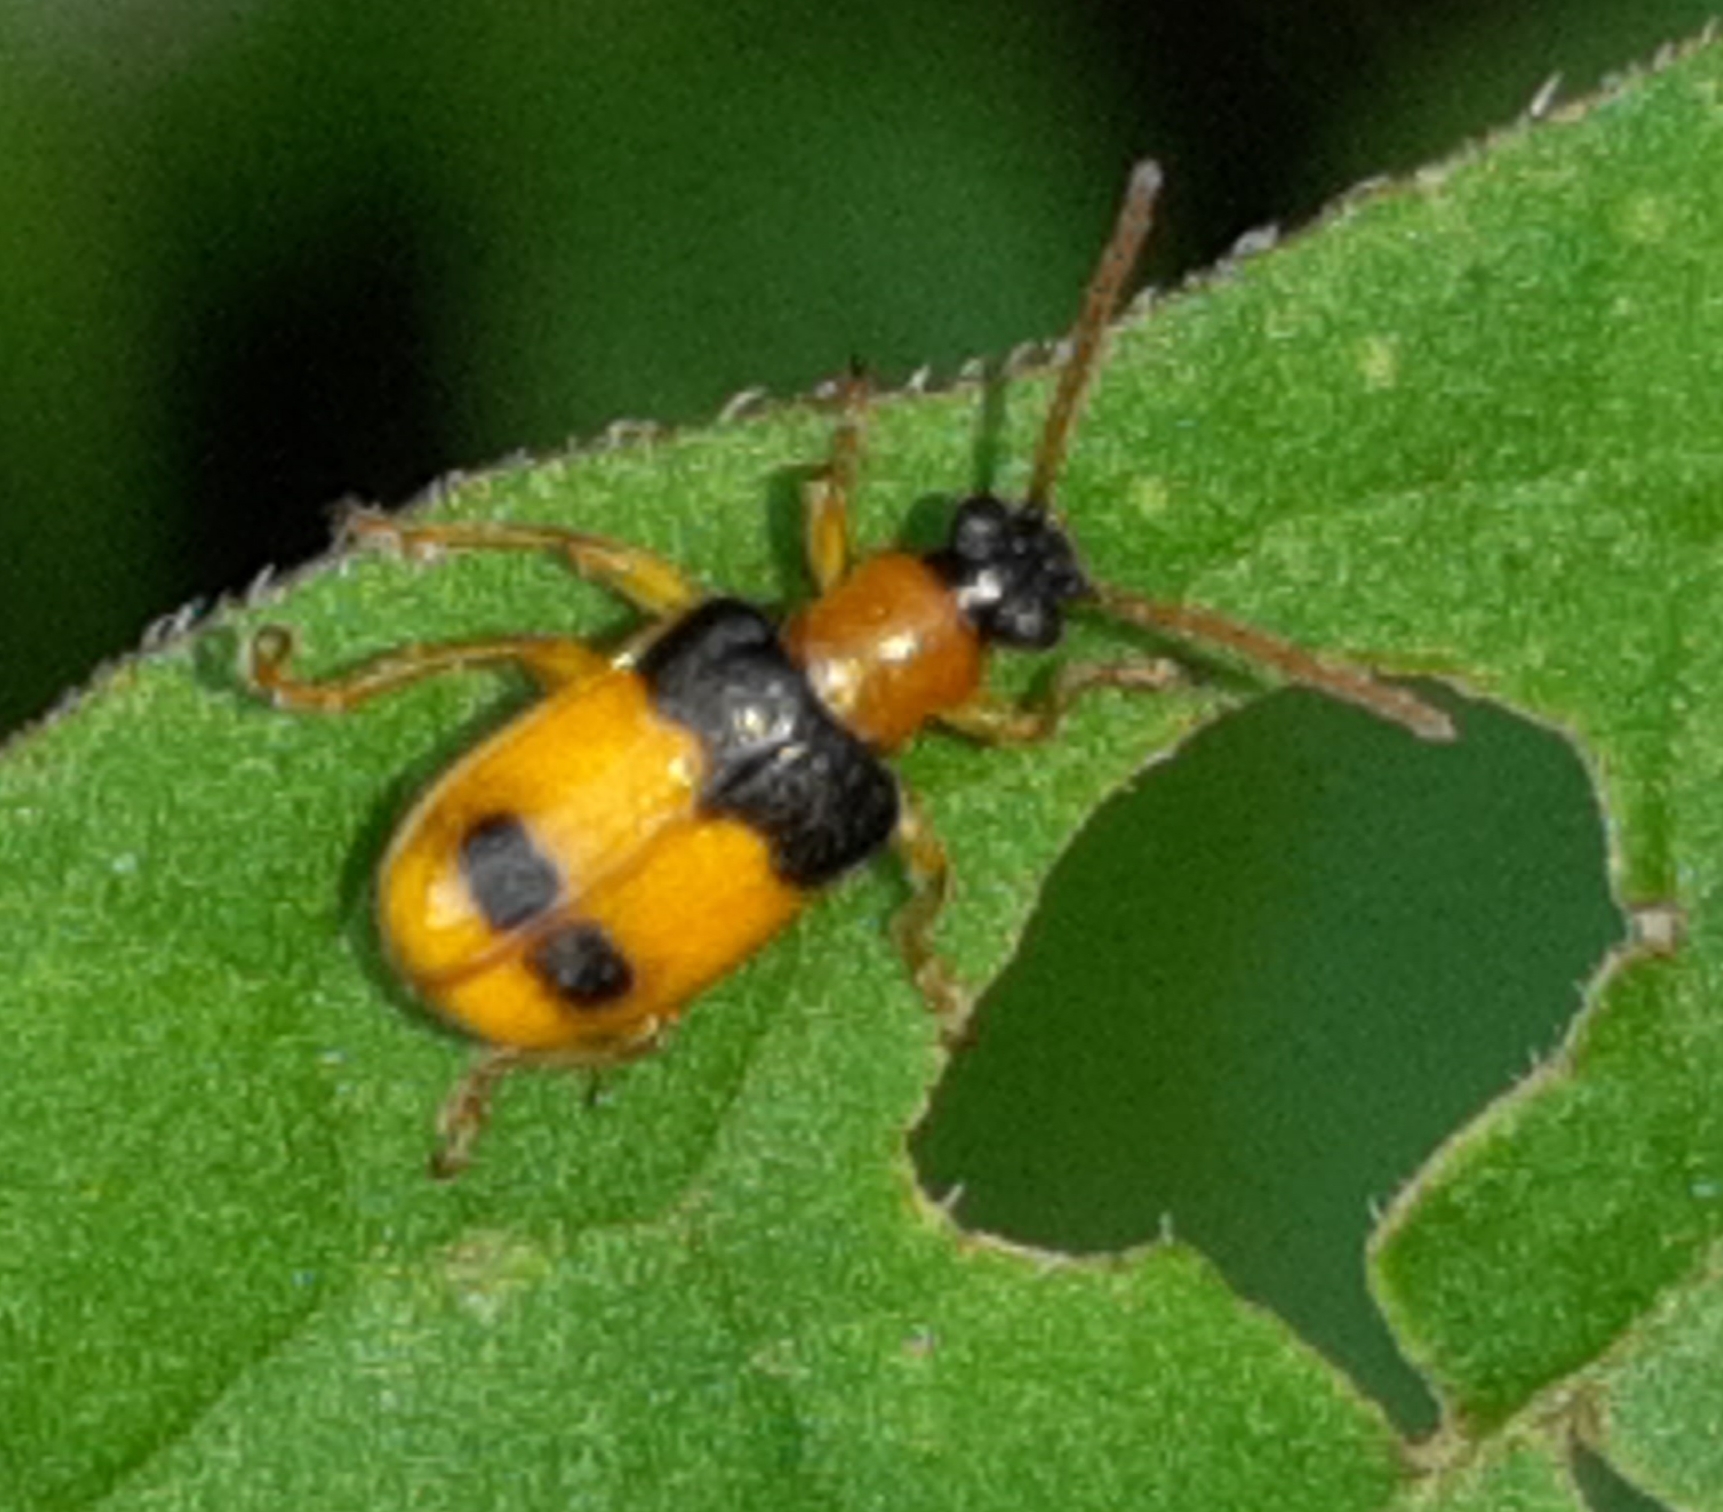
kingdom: Animalia
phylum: Arthropoda
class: Insecta
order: Coleoptera
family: Chrysomelidae
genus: Lema
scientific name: Lema
